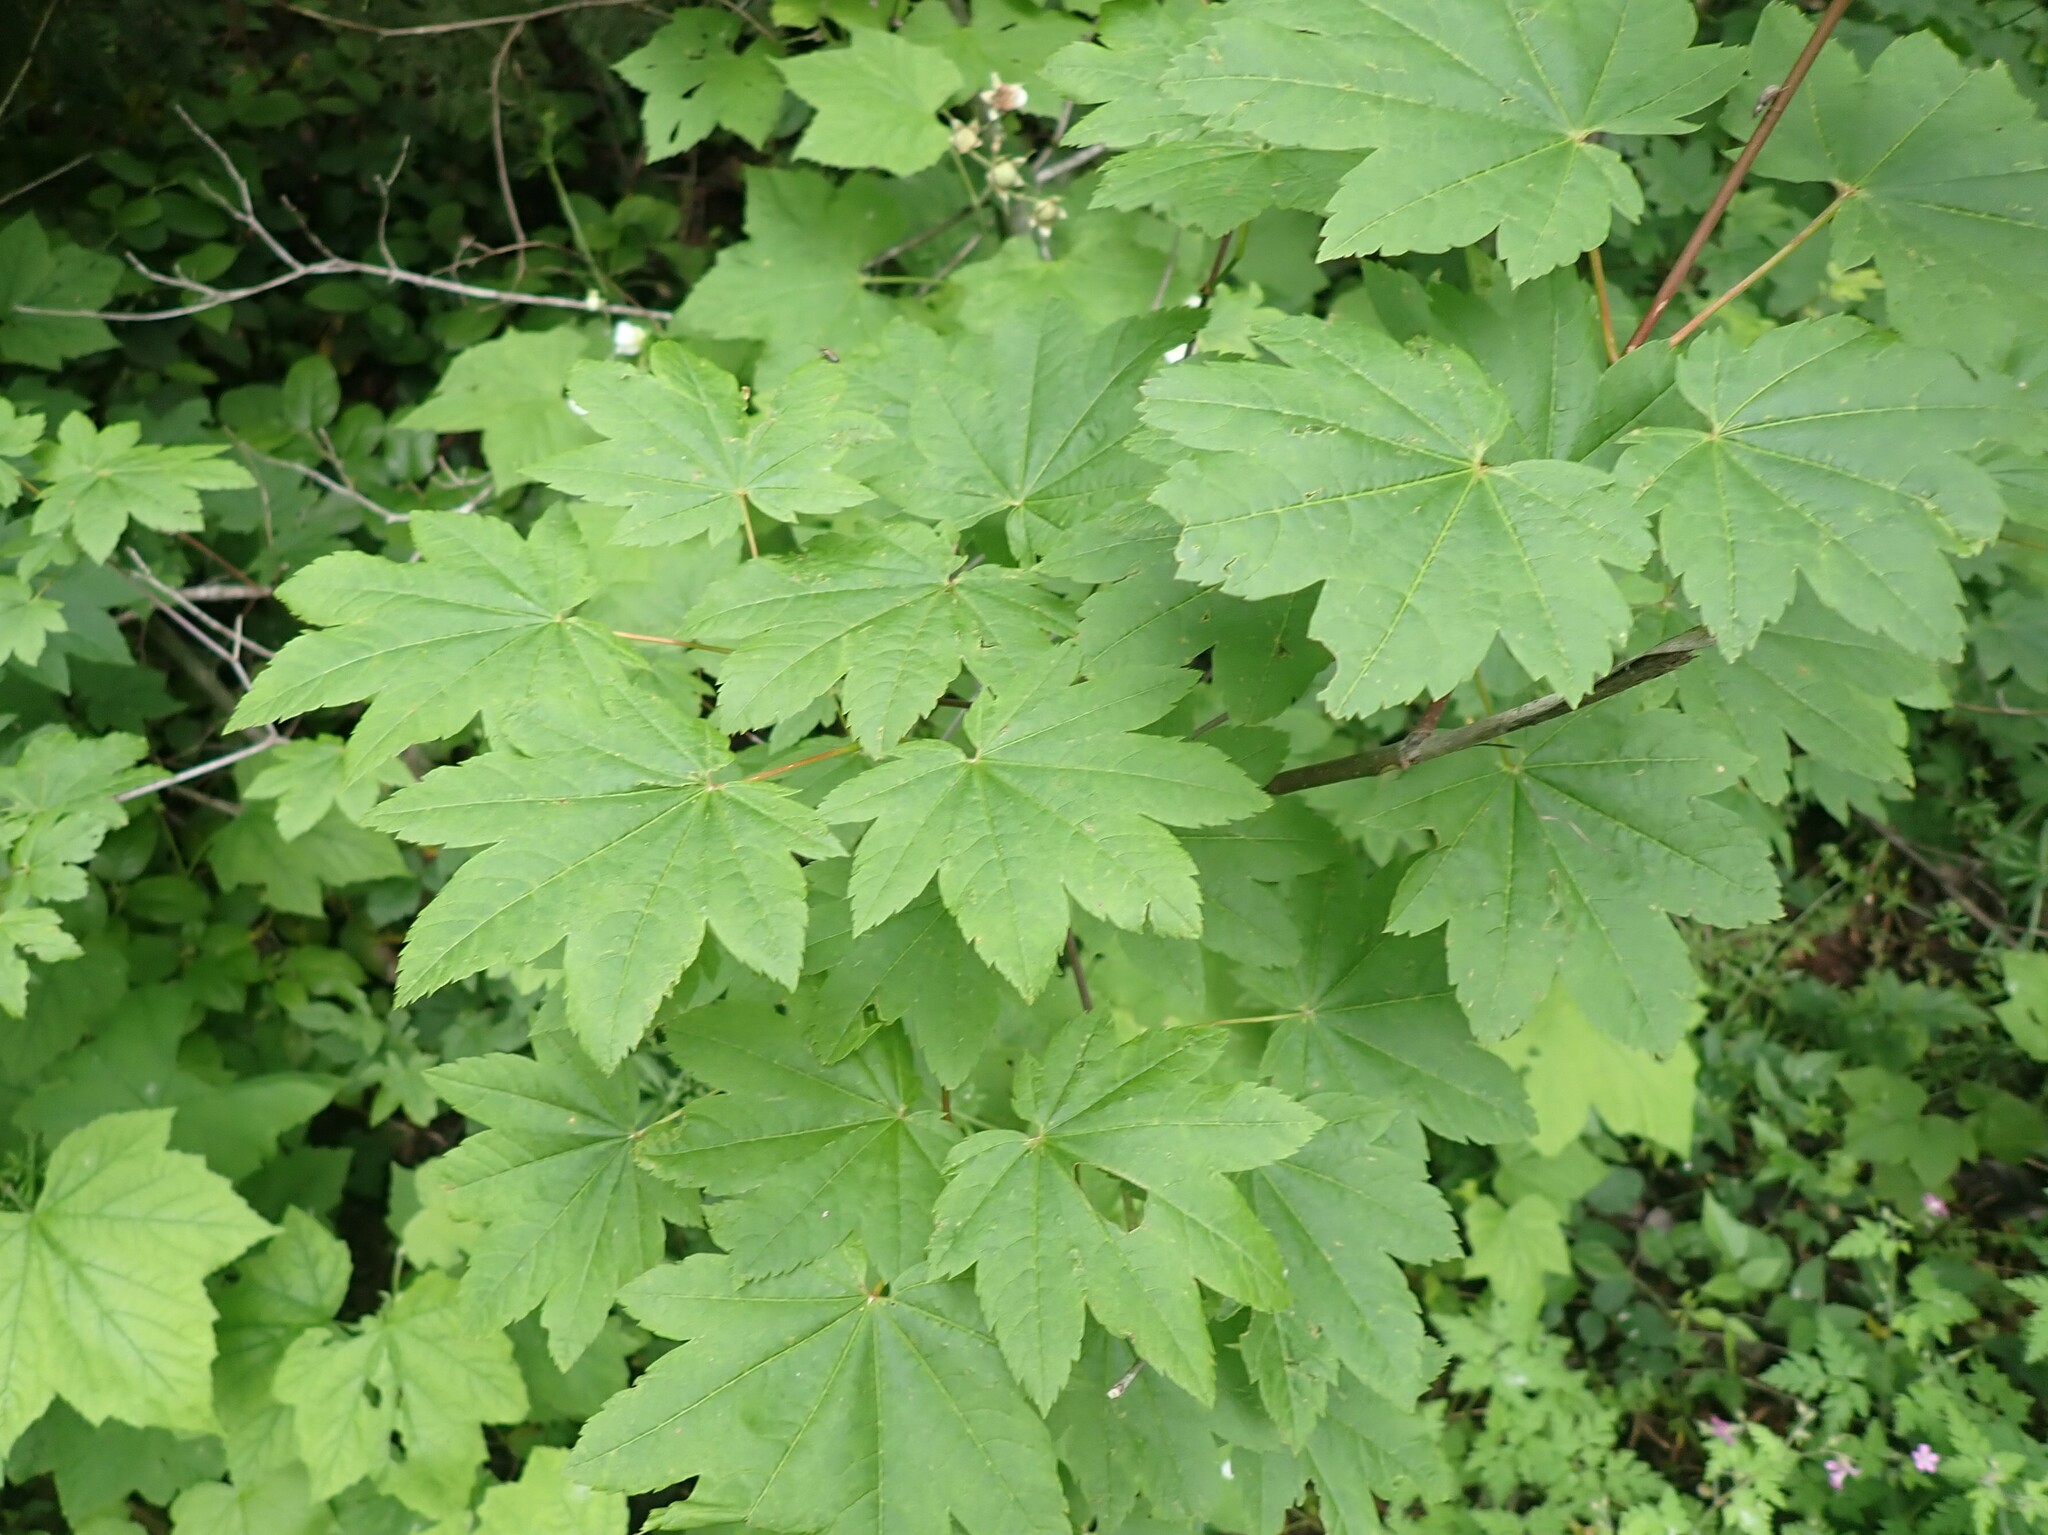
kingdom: Plantae
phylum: Tracheophyta
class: Magnoliopsida
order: Sapindales
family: Sapindaceae
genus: Acer
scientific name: Acer circinatum
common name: Vine maple
